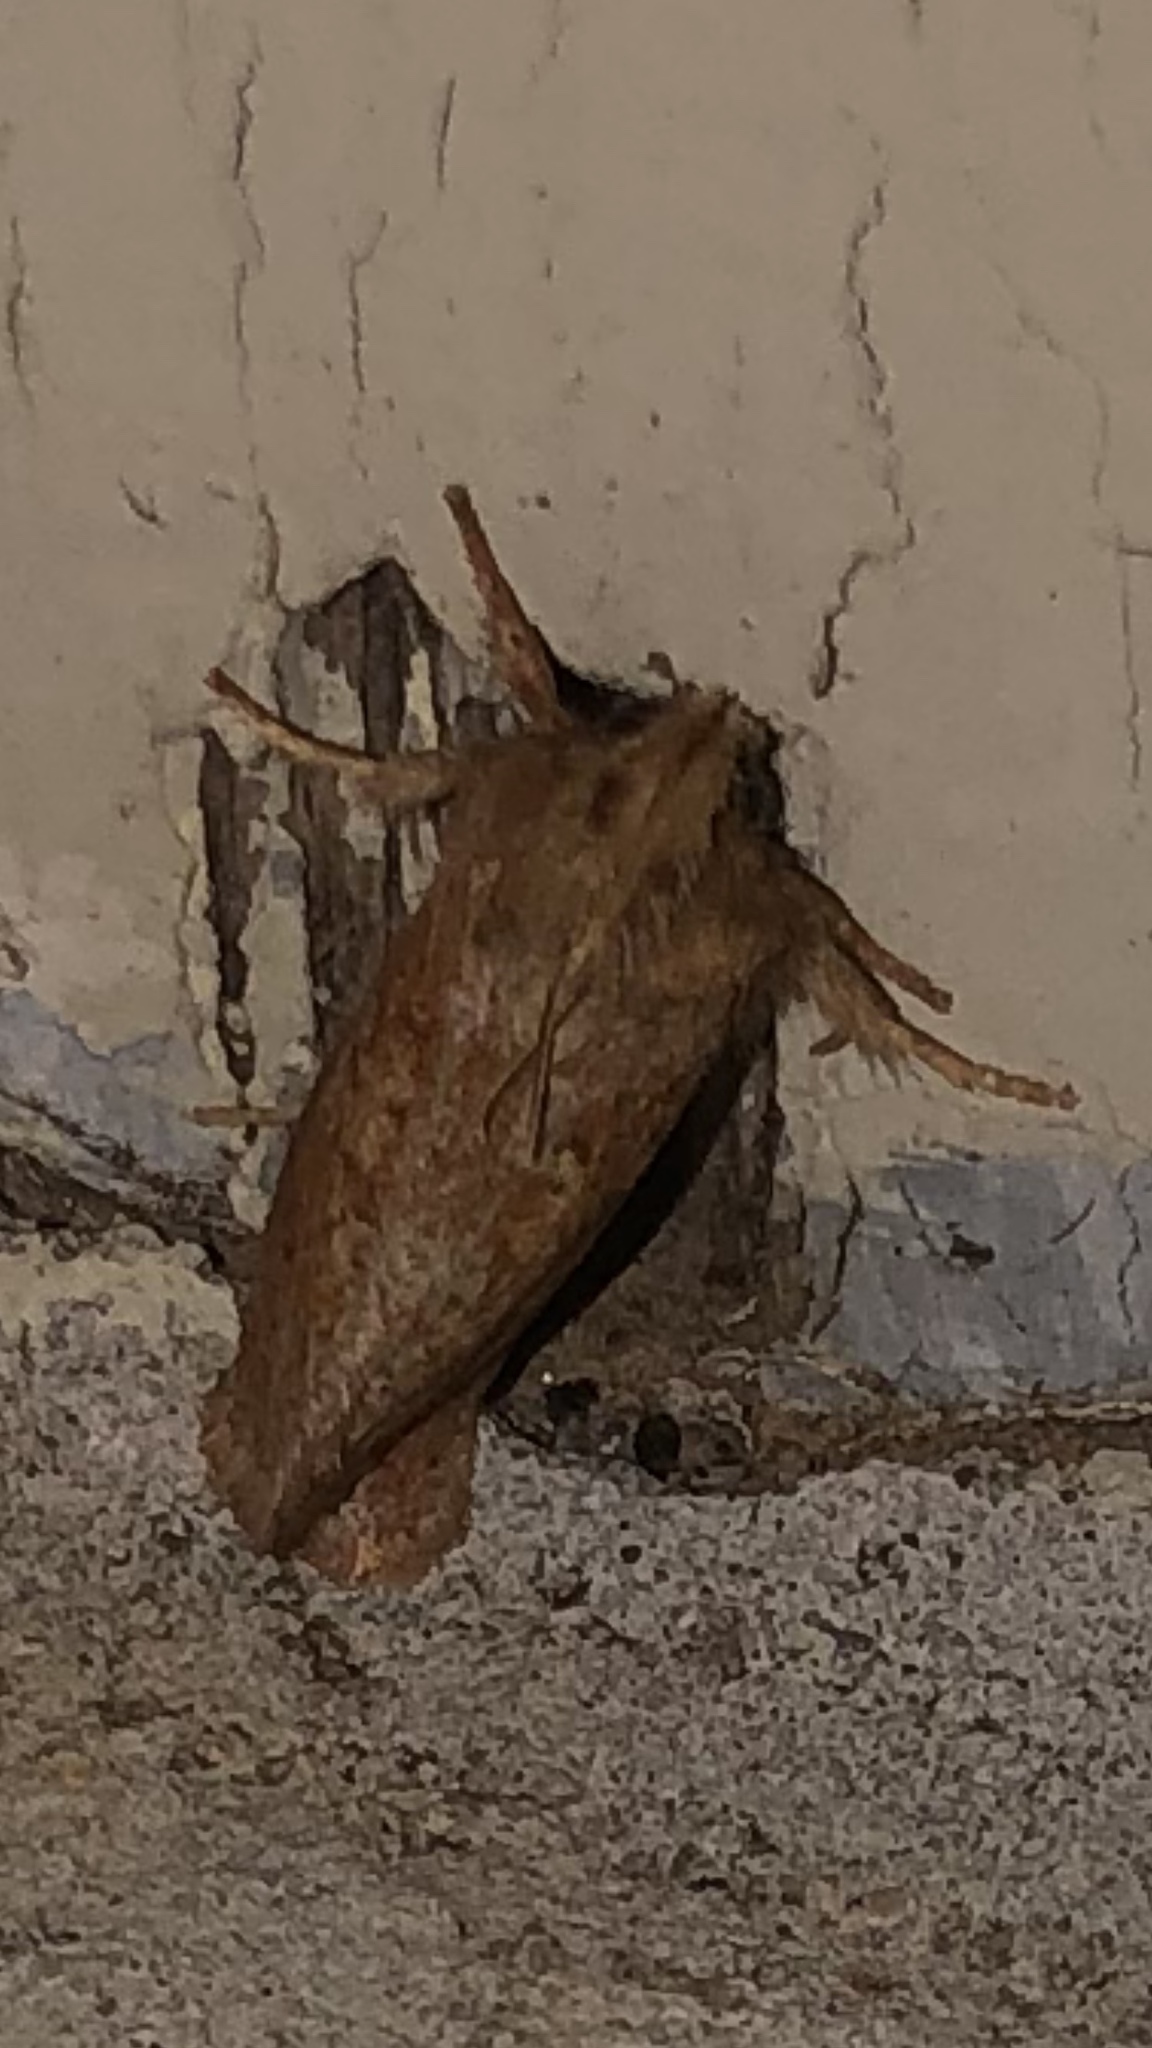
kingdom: Animalia
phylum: Arthropoda
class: Insecta
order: Lepidoptera
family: Tineidae
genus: Acrolophus
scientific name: Acrolophus plumifrontella
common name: Eastern grass tubeworm moth
